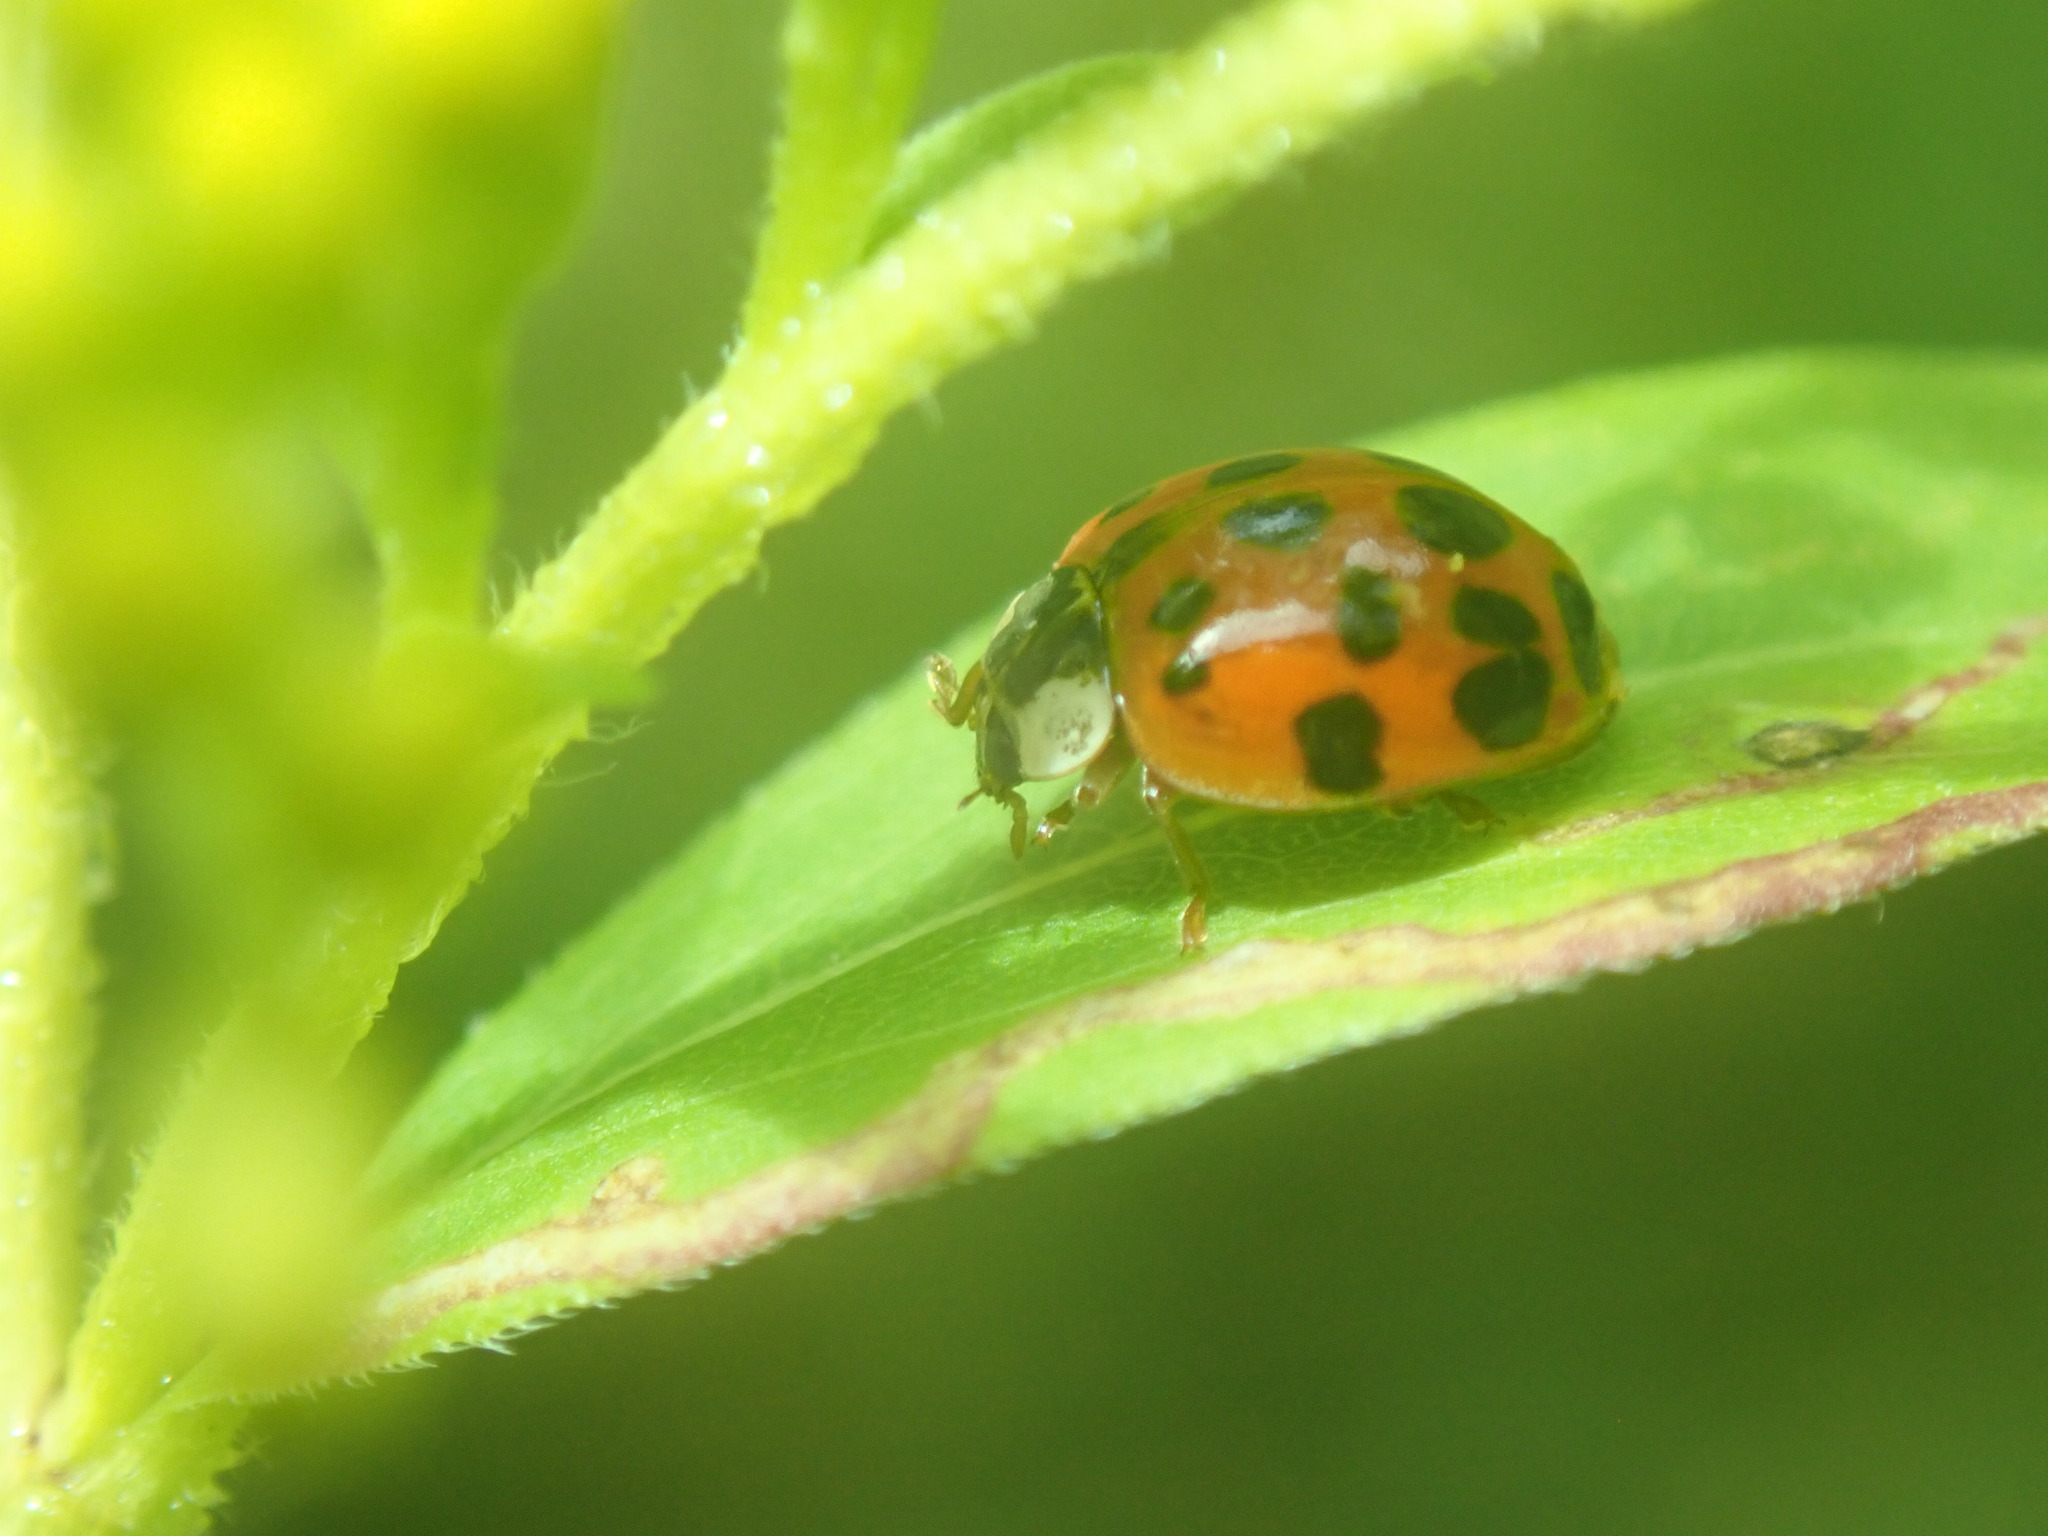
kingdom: Animalia
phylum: Arthropoda
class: Insecta
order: Coleoptera
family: Coccinellidae
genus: Harmonia
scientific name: Harmonia axyridis
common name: Harlequin ladybird
